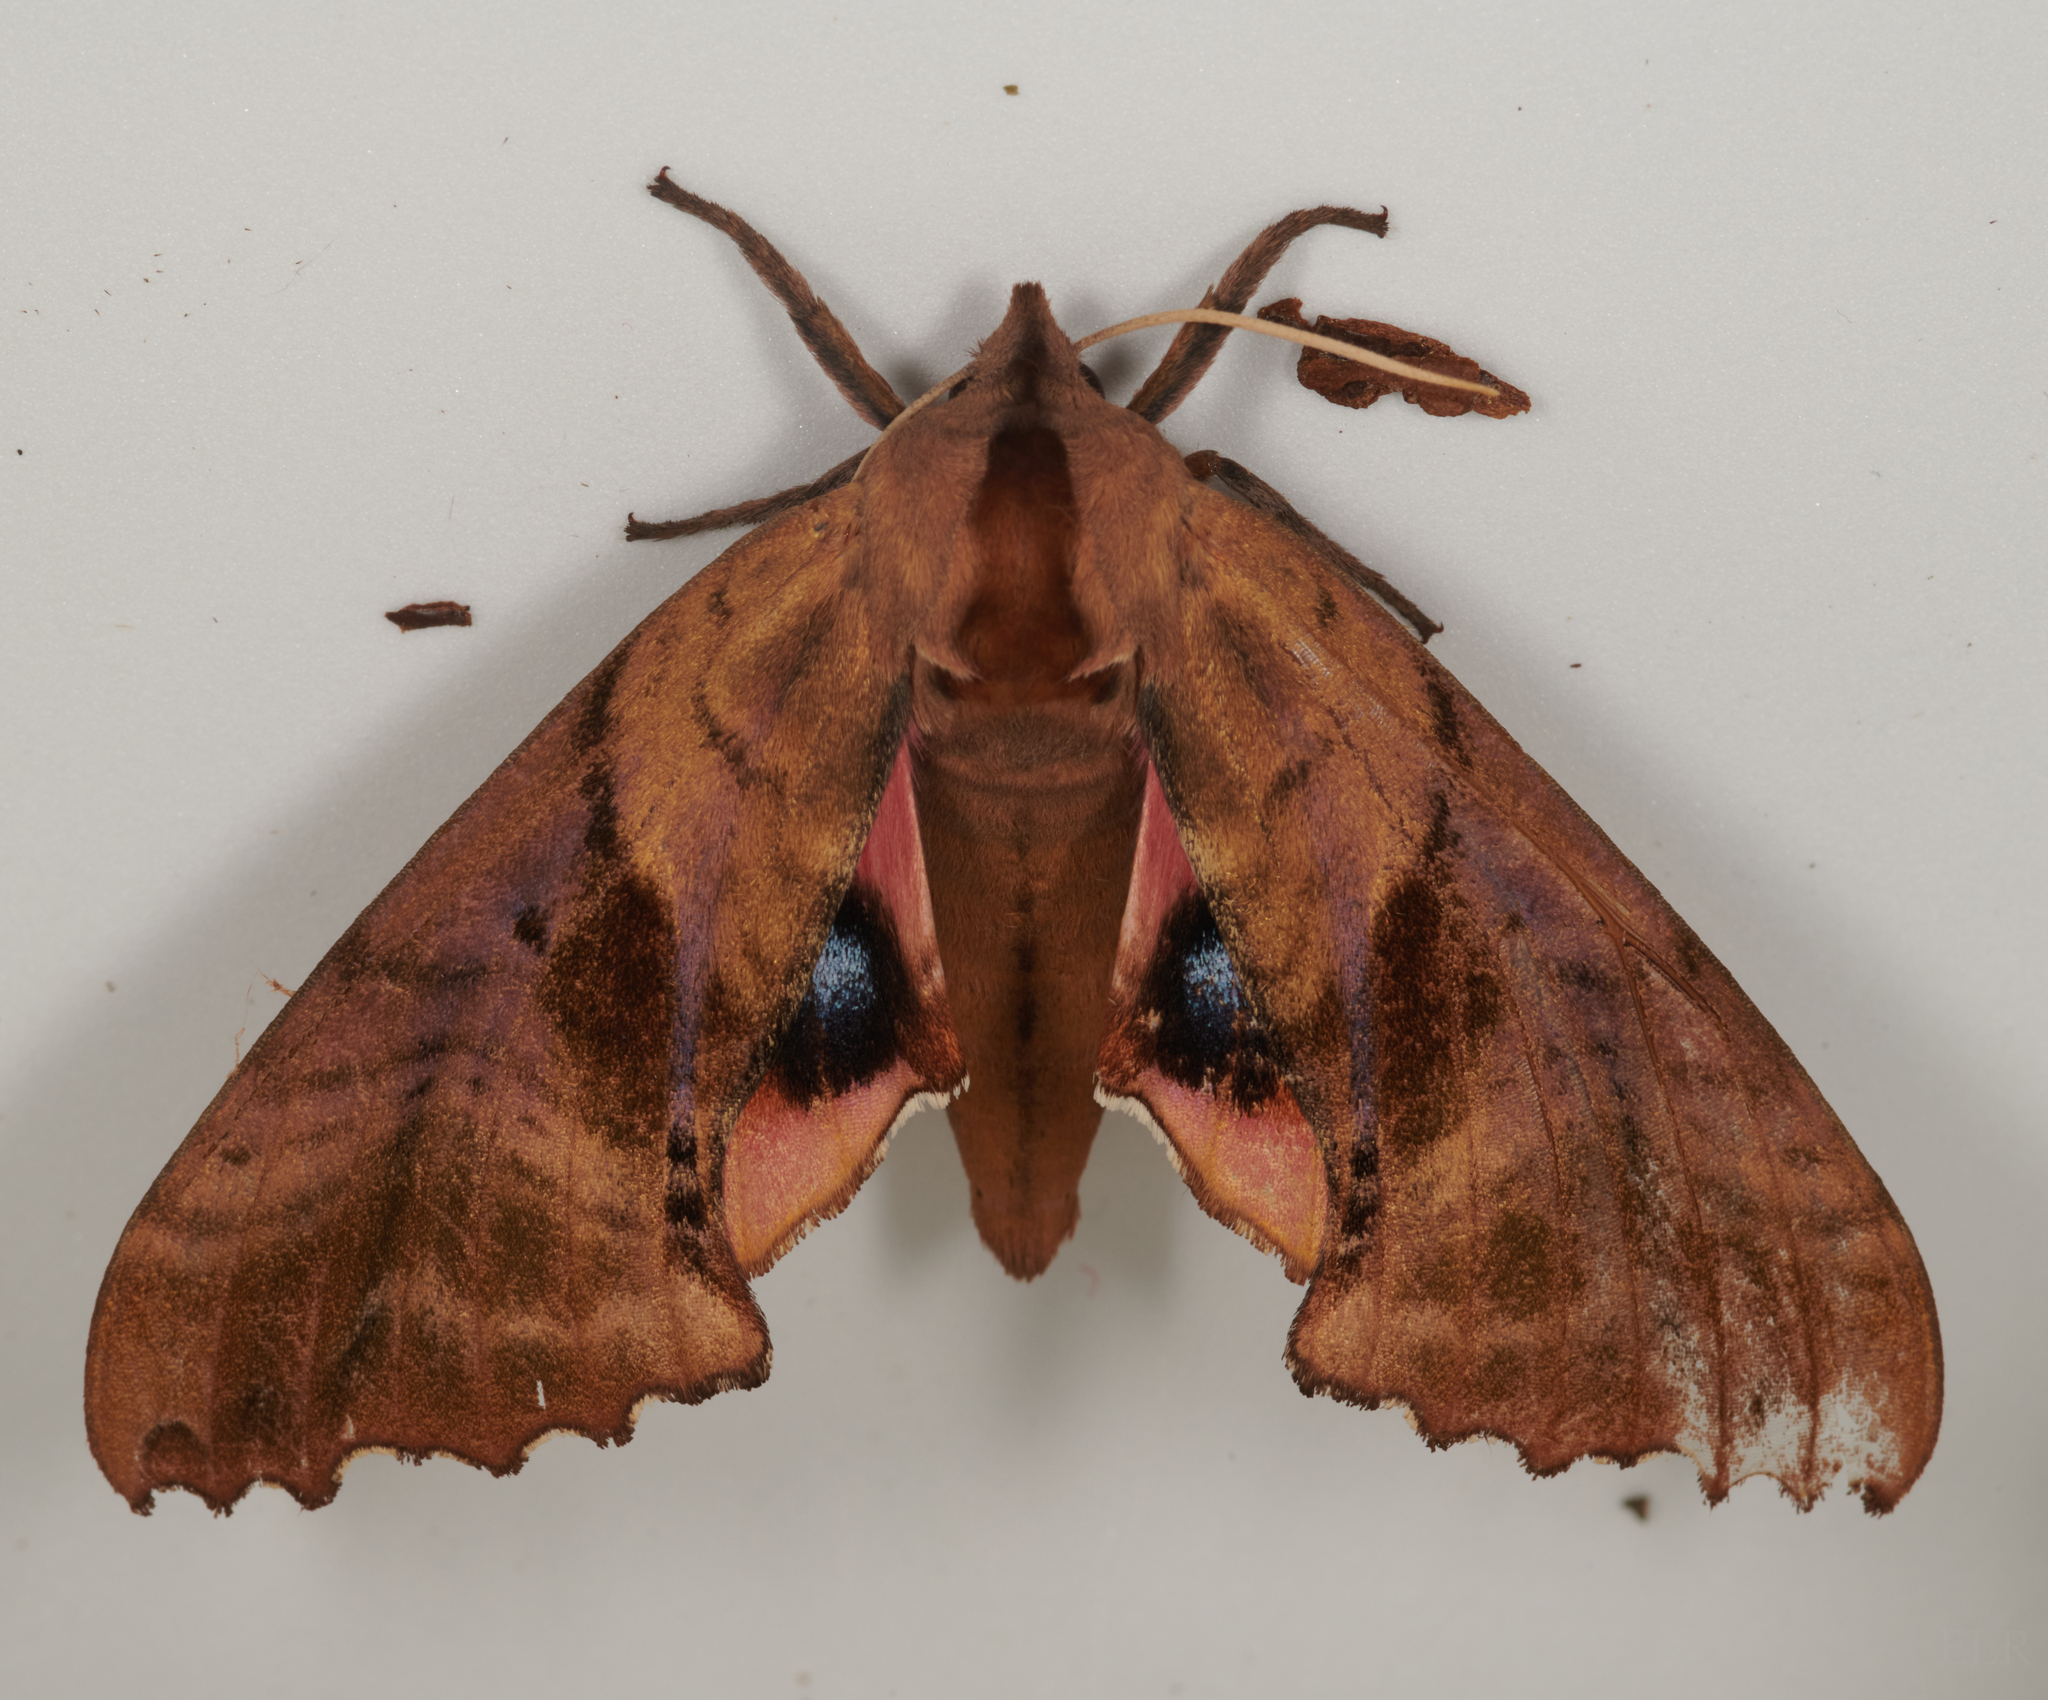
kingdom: Animalia
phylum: Arthropoda
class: Insecta
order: Lepidoptera
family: Sphingidae
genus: Paonias
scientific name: Paonias excaecata
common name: Blind-eyed sphinx
